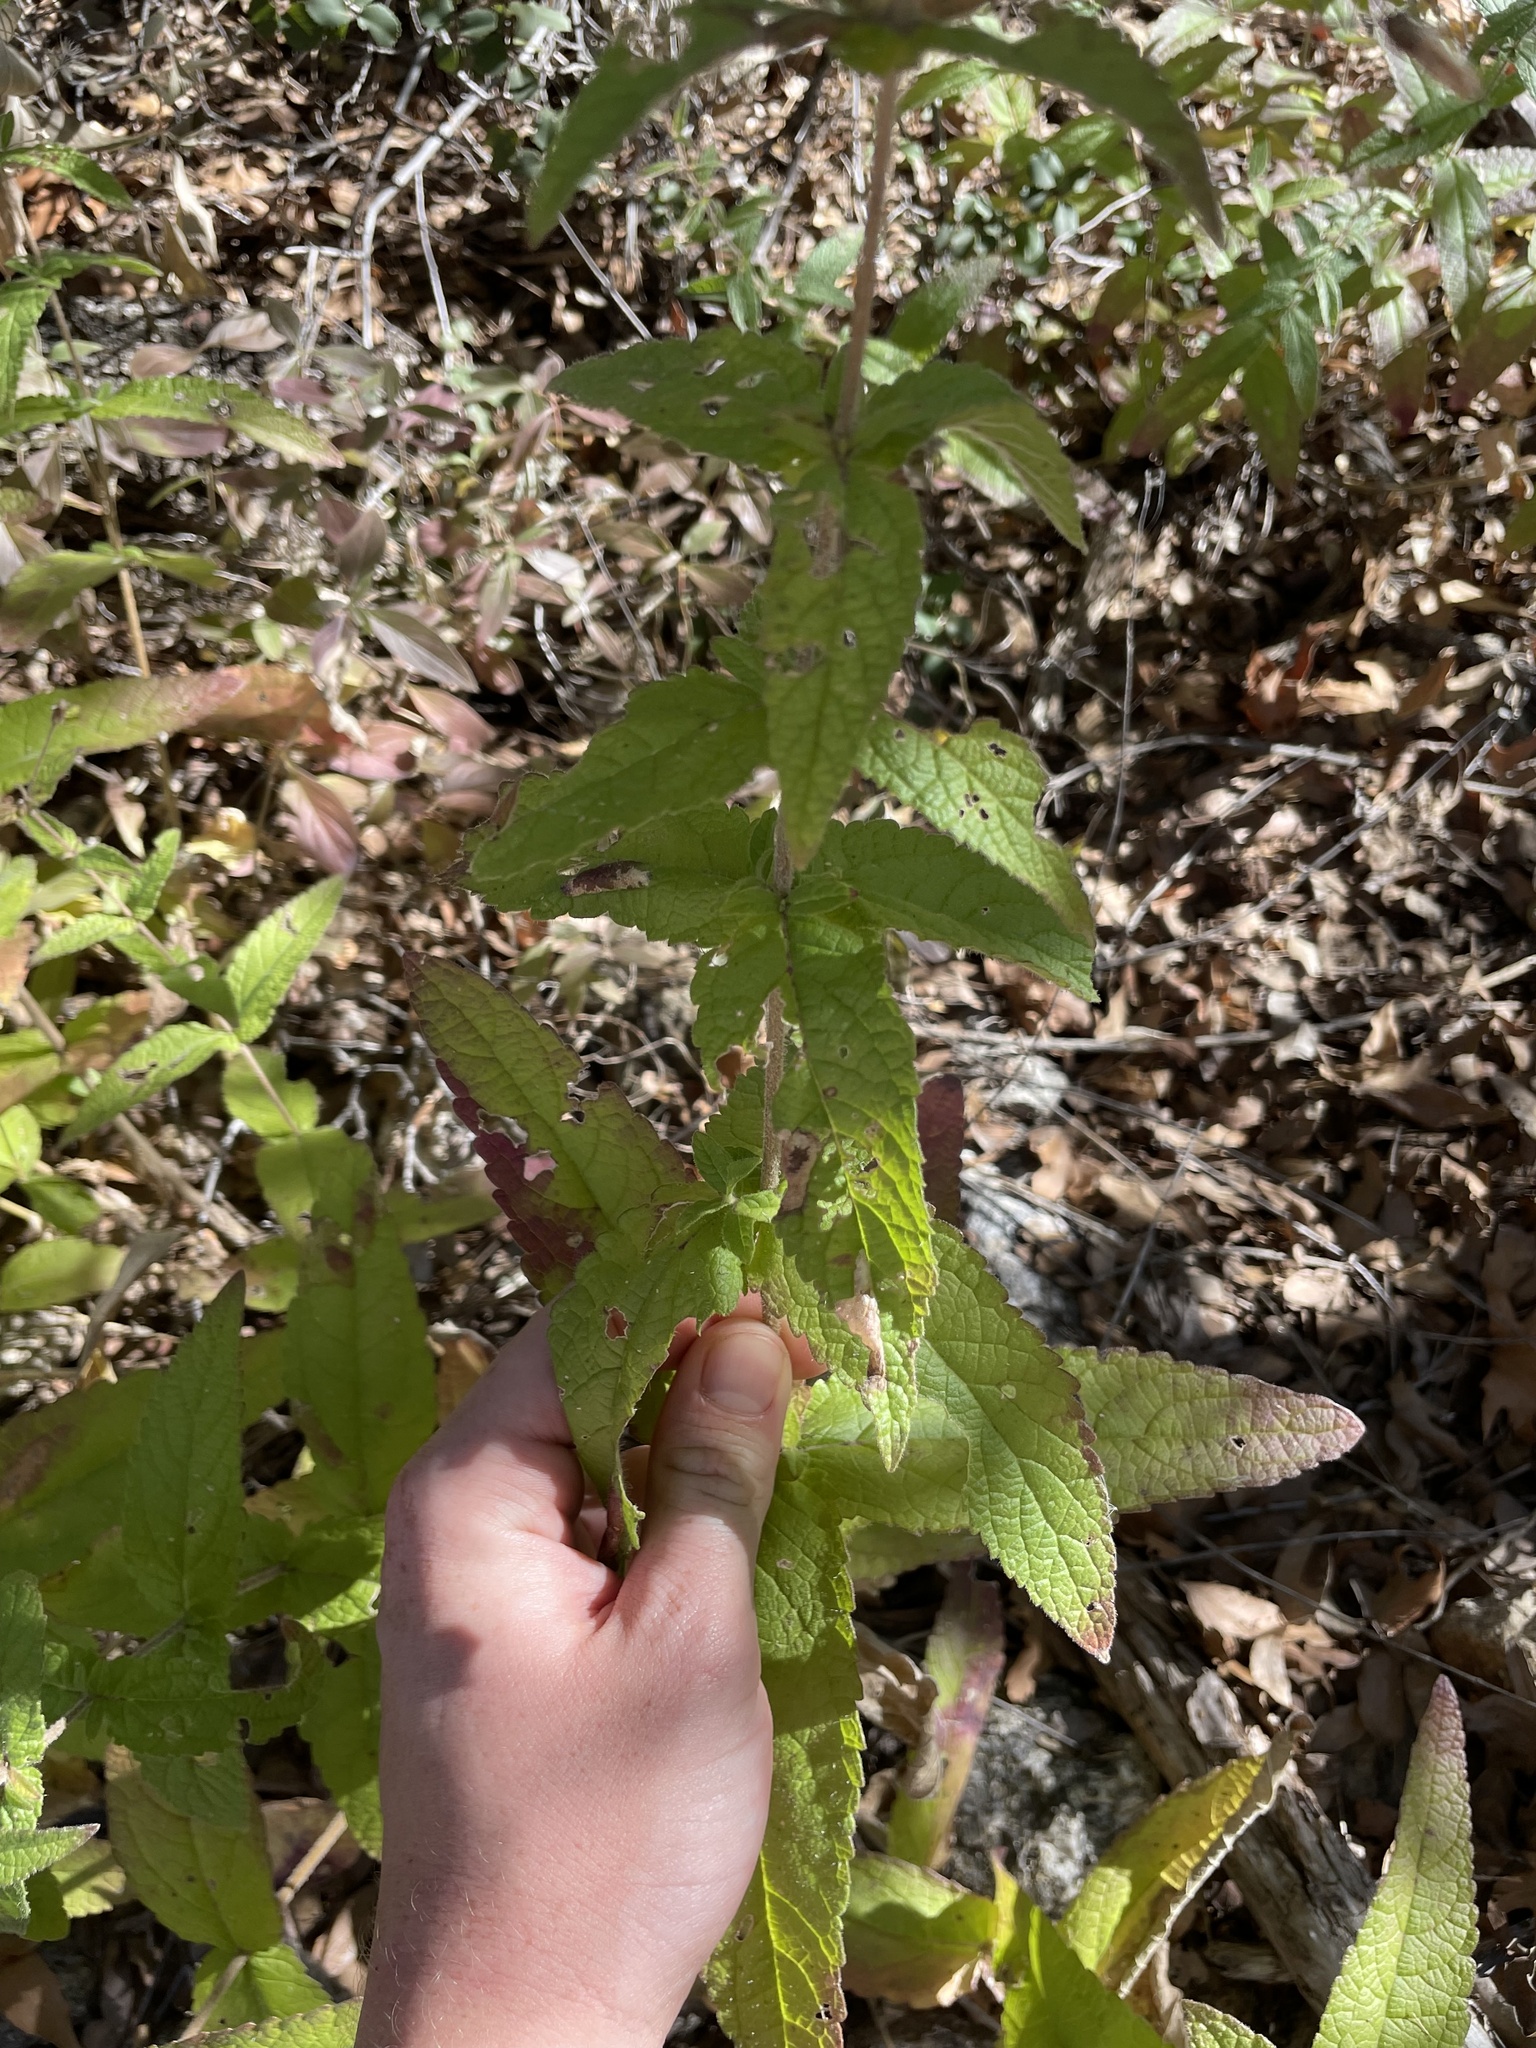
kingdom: Plantae
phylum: Tracheophyta
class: Magnoliopsida
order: Asterales
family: Asteraceae
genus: Brickellia
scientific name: Brickellia betonicifolia
